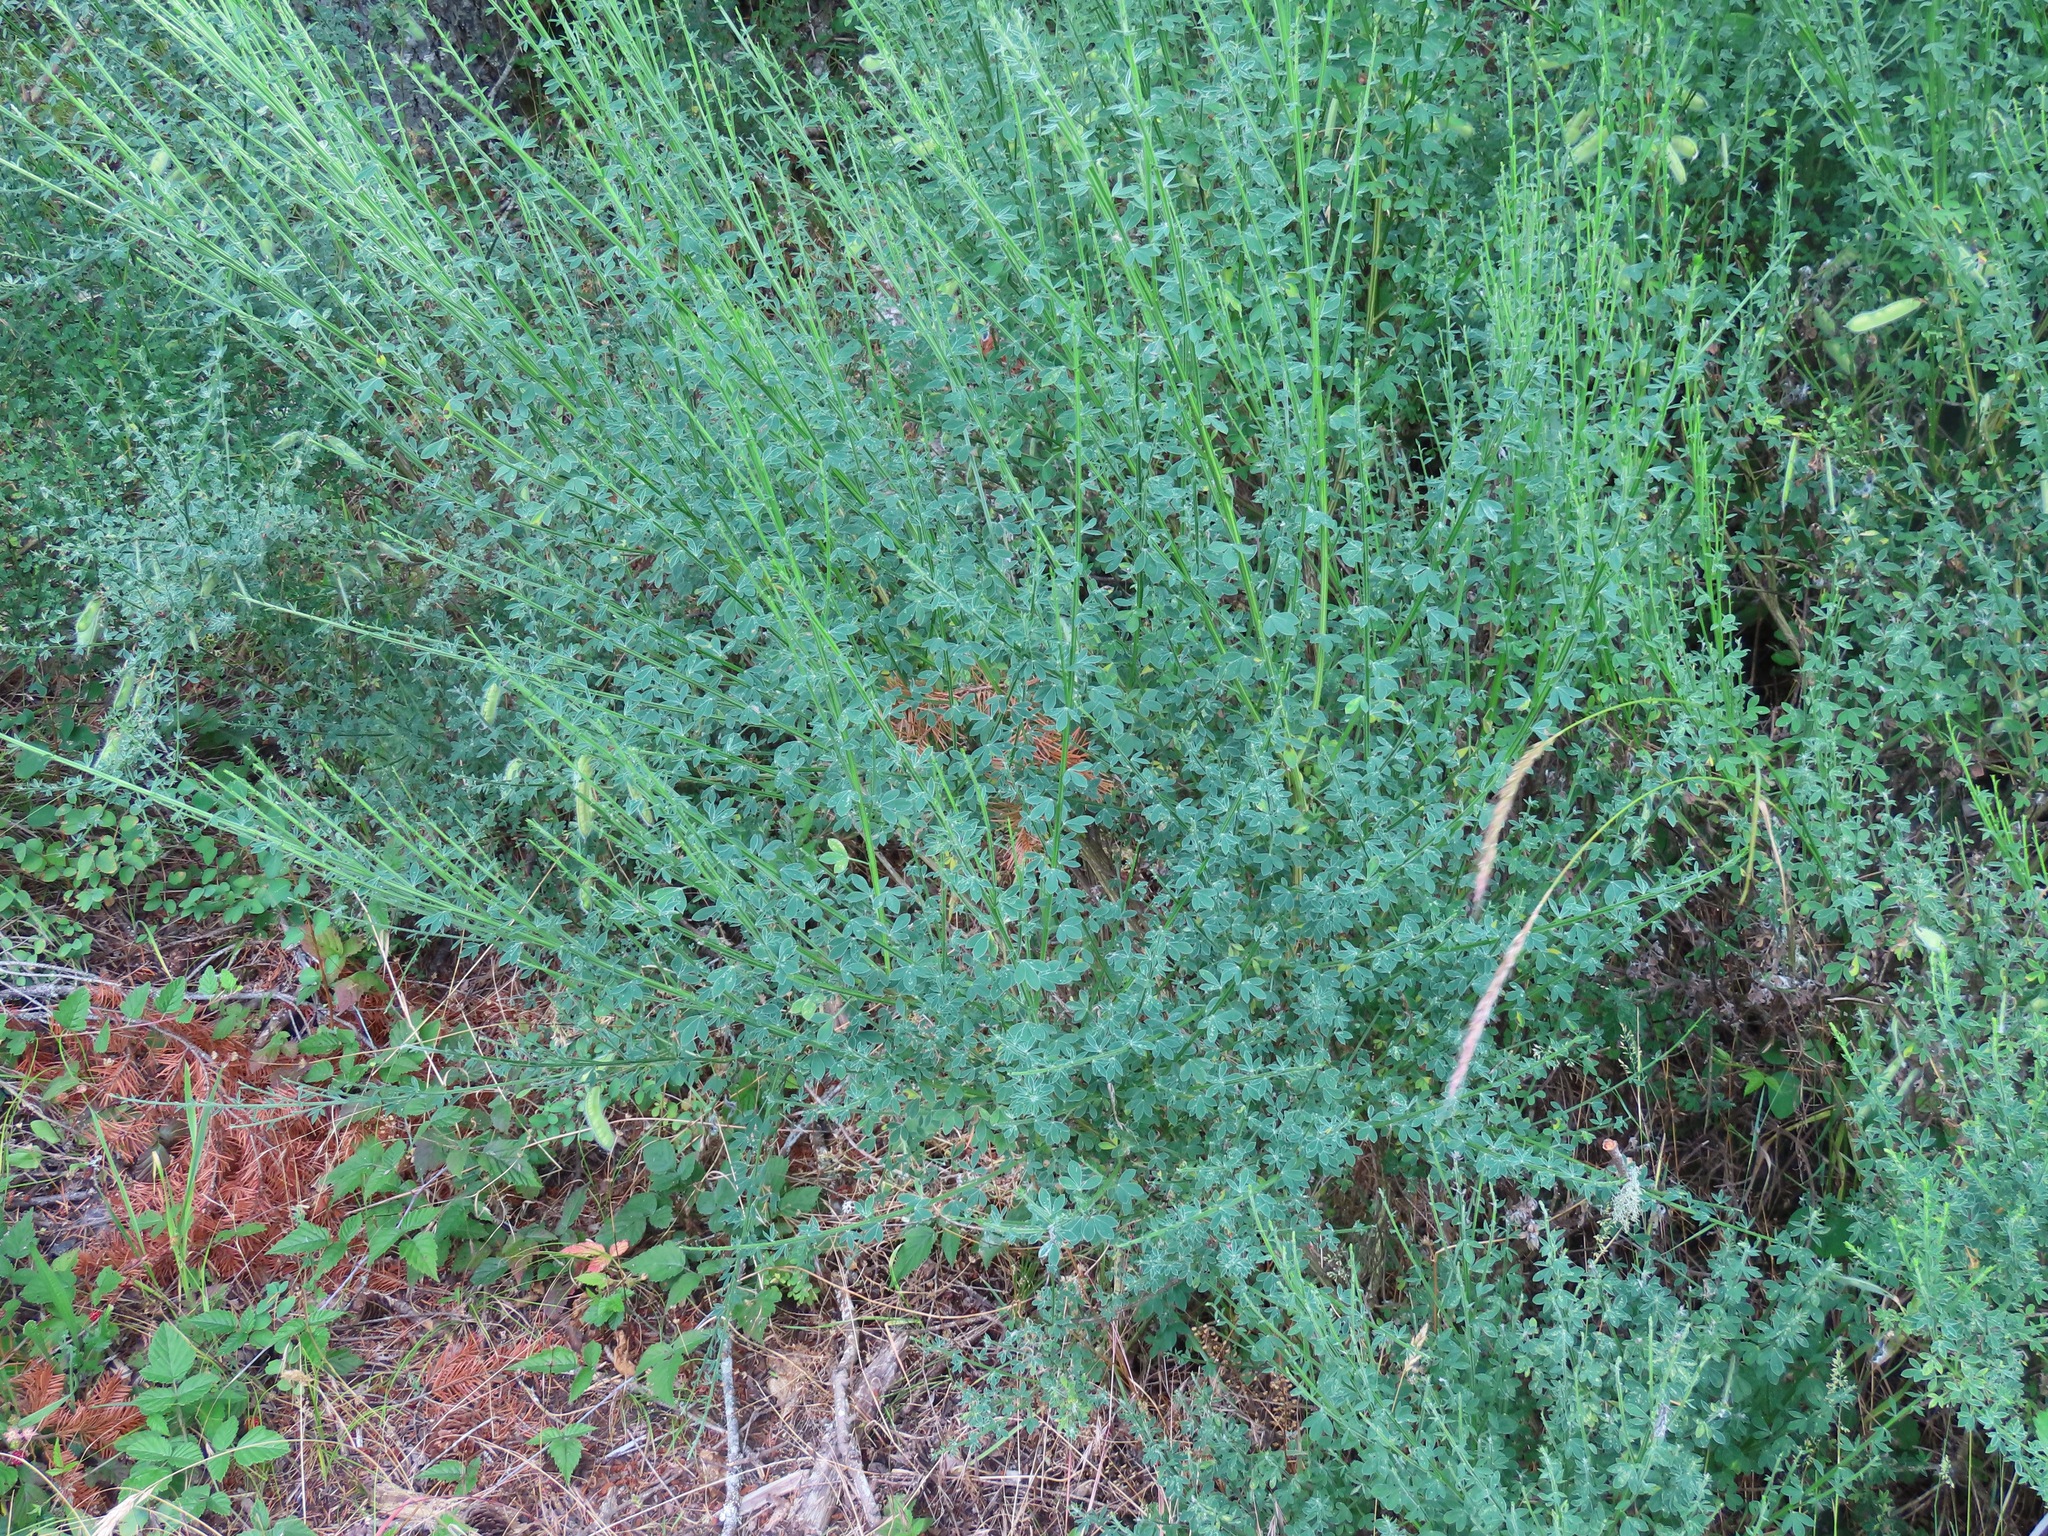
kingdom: Plantae
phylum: Tracheophyta
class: Magnoliopsida
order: Fabales
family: Fabaceae
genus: Cytisus
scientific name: Cytisus scoparius
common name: Scotch broom
